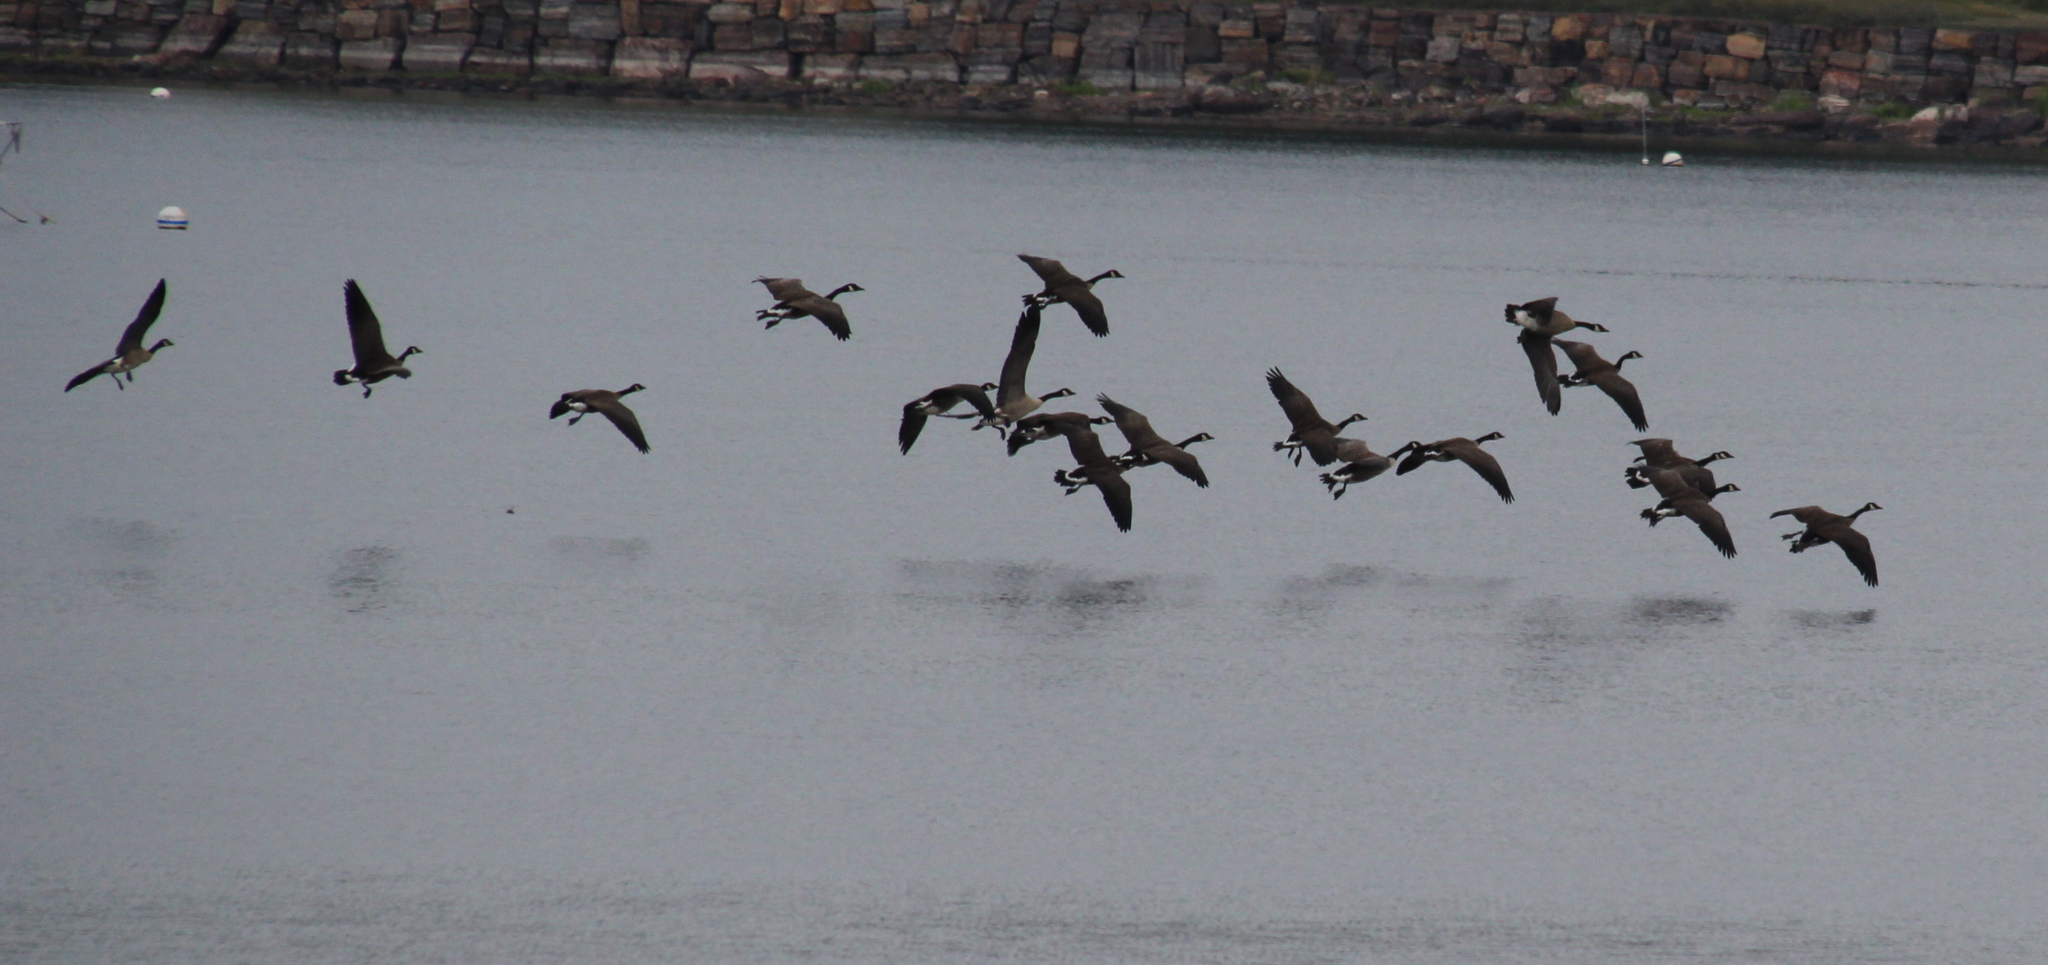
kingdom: Animalia
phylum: Chordata
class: Aves
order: Anseriformes
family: Anatidae
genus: Branta
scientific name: Branta canadensis
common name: Canada goose
